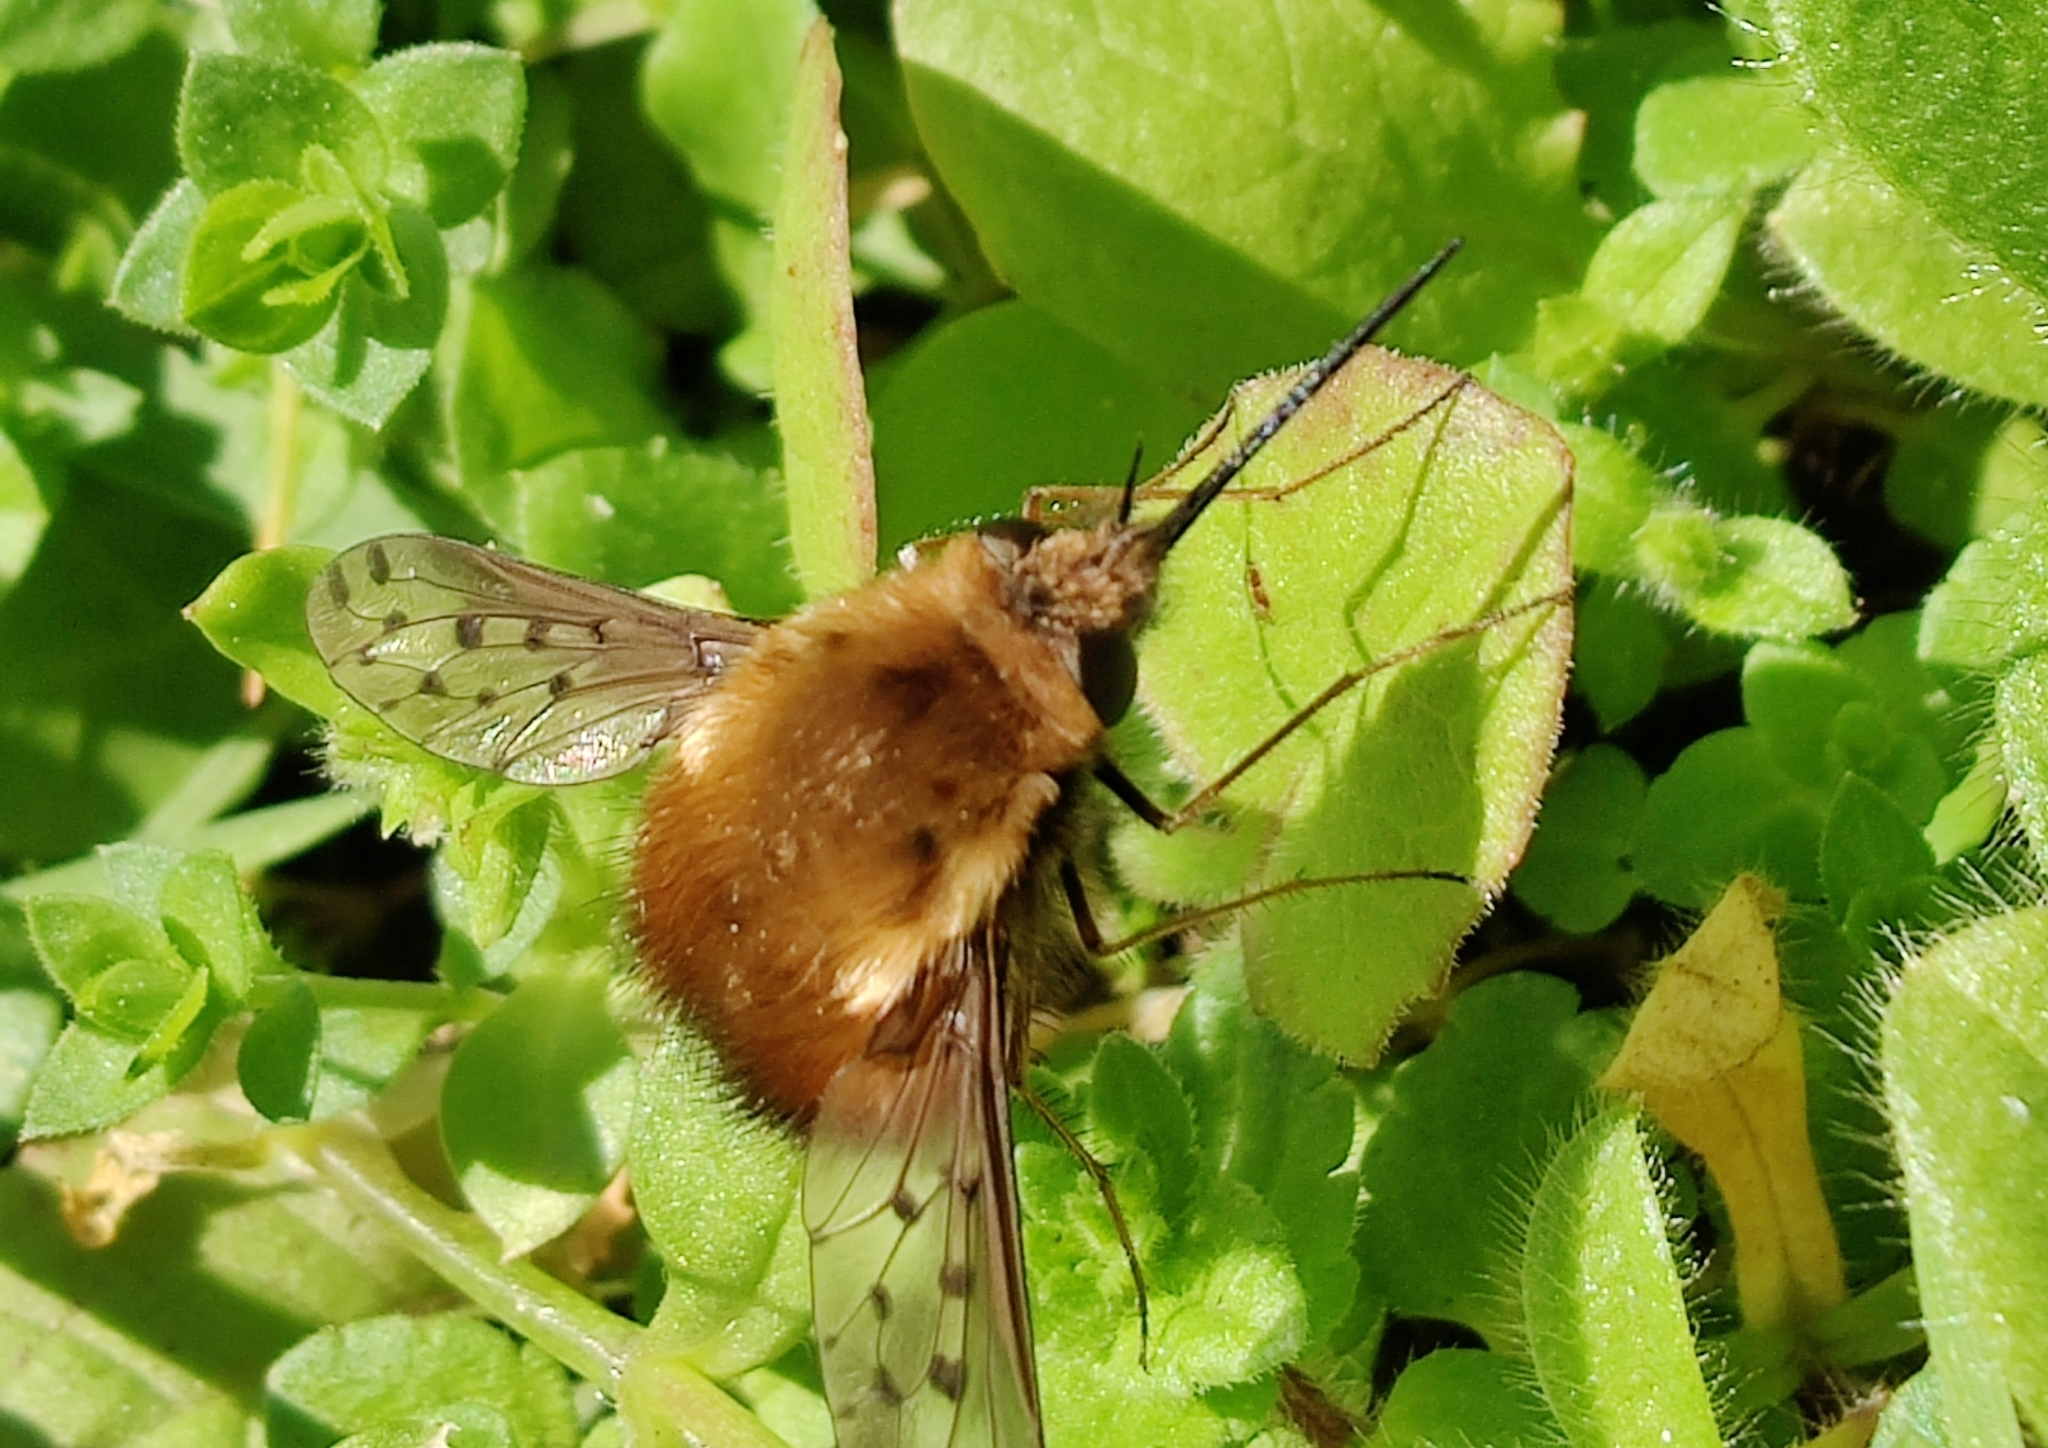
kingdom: Animalia
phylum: Arthropoda
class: Insecta
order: Diptera
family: Bombyliidae
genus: Bombylius
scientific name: Bombylius discolor
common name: Dotted bee-fly
